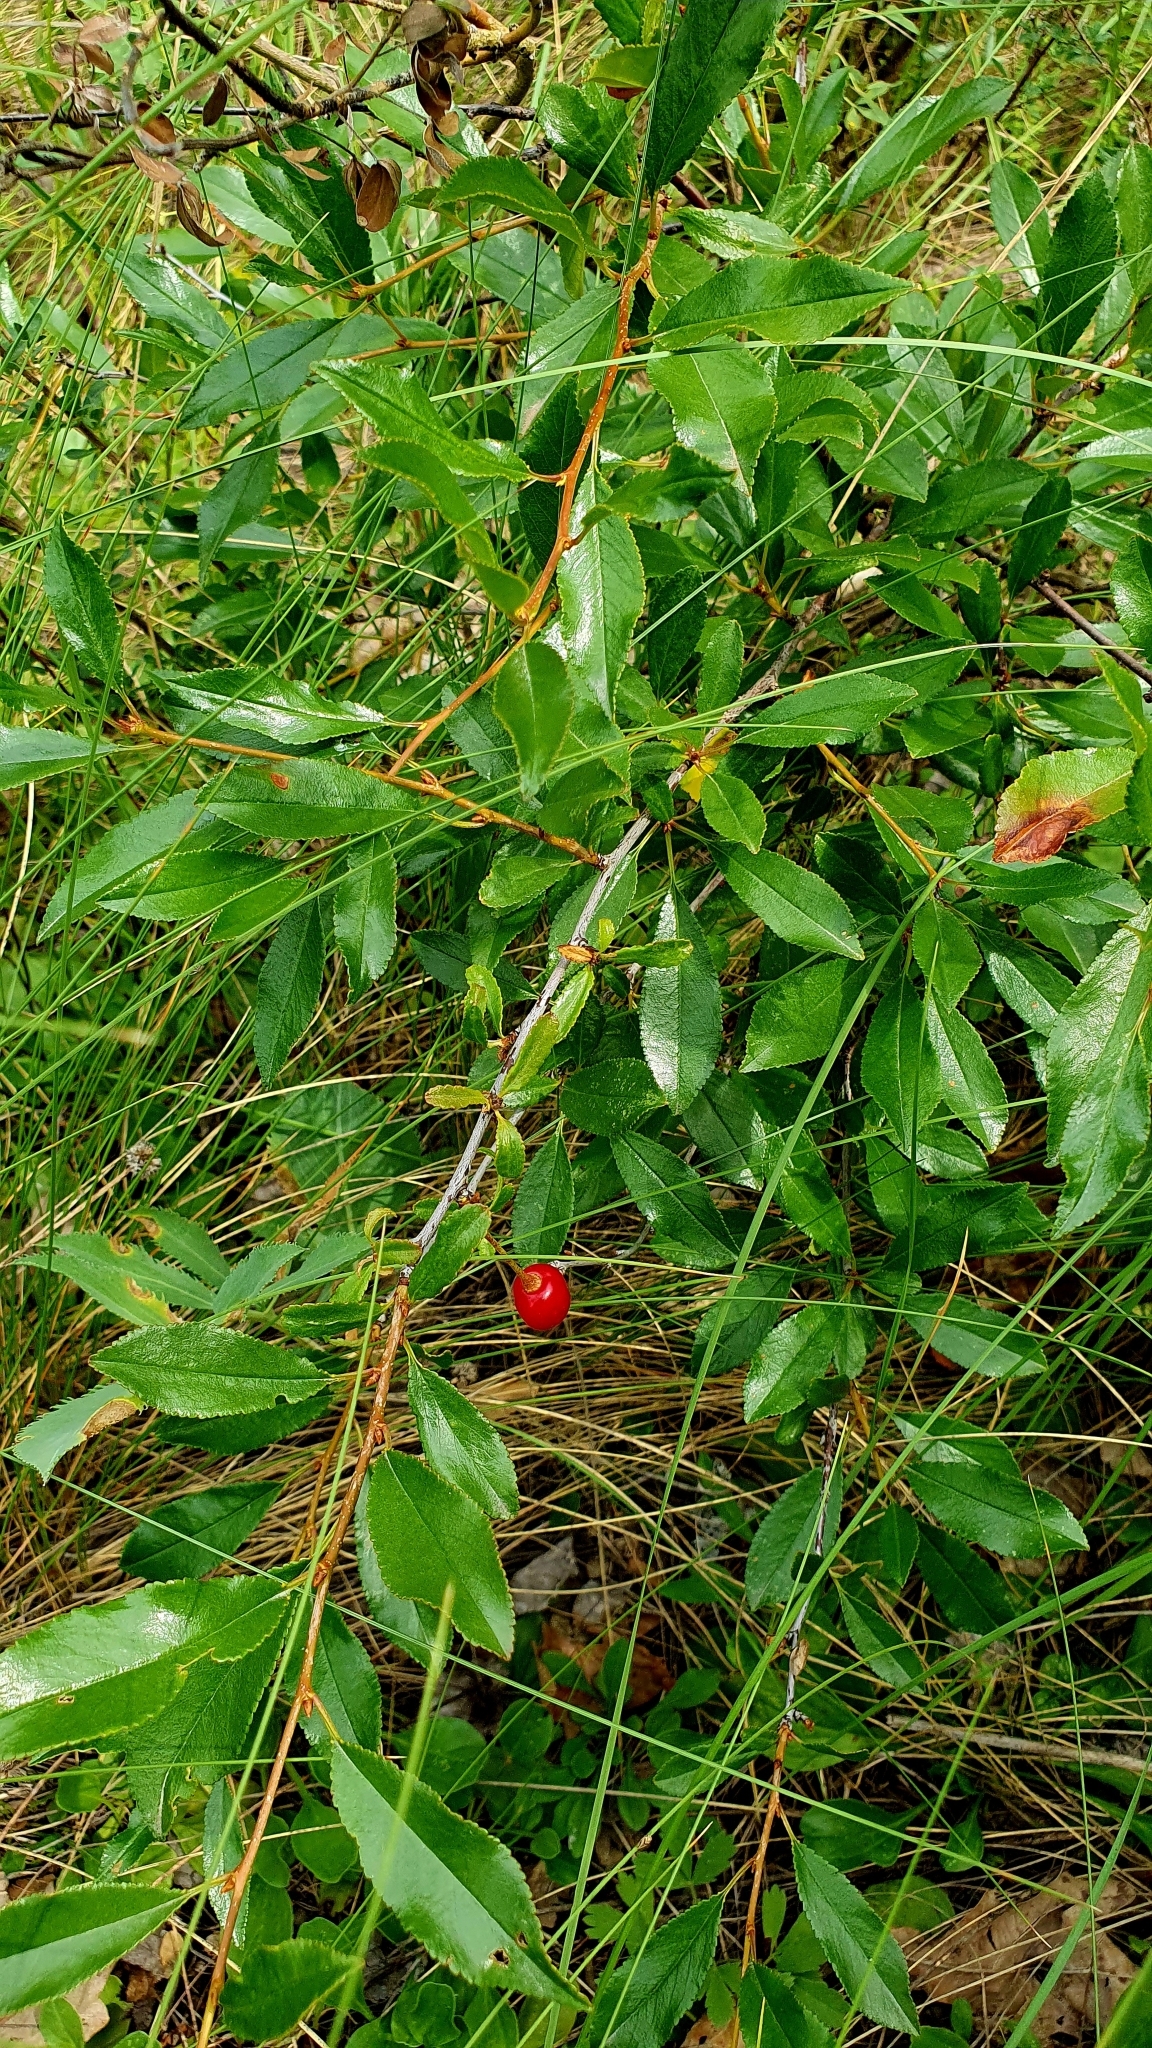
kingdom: Plantae
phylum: Tracheophyta
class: Magnoliopsida
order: Rosales
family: Rosaceae
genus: Prunus
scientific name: Prunus fruticosa
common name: European dwarf cherry
